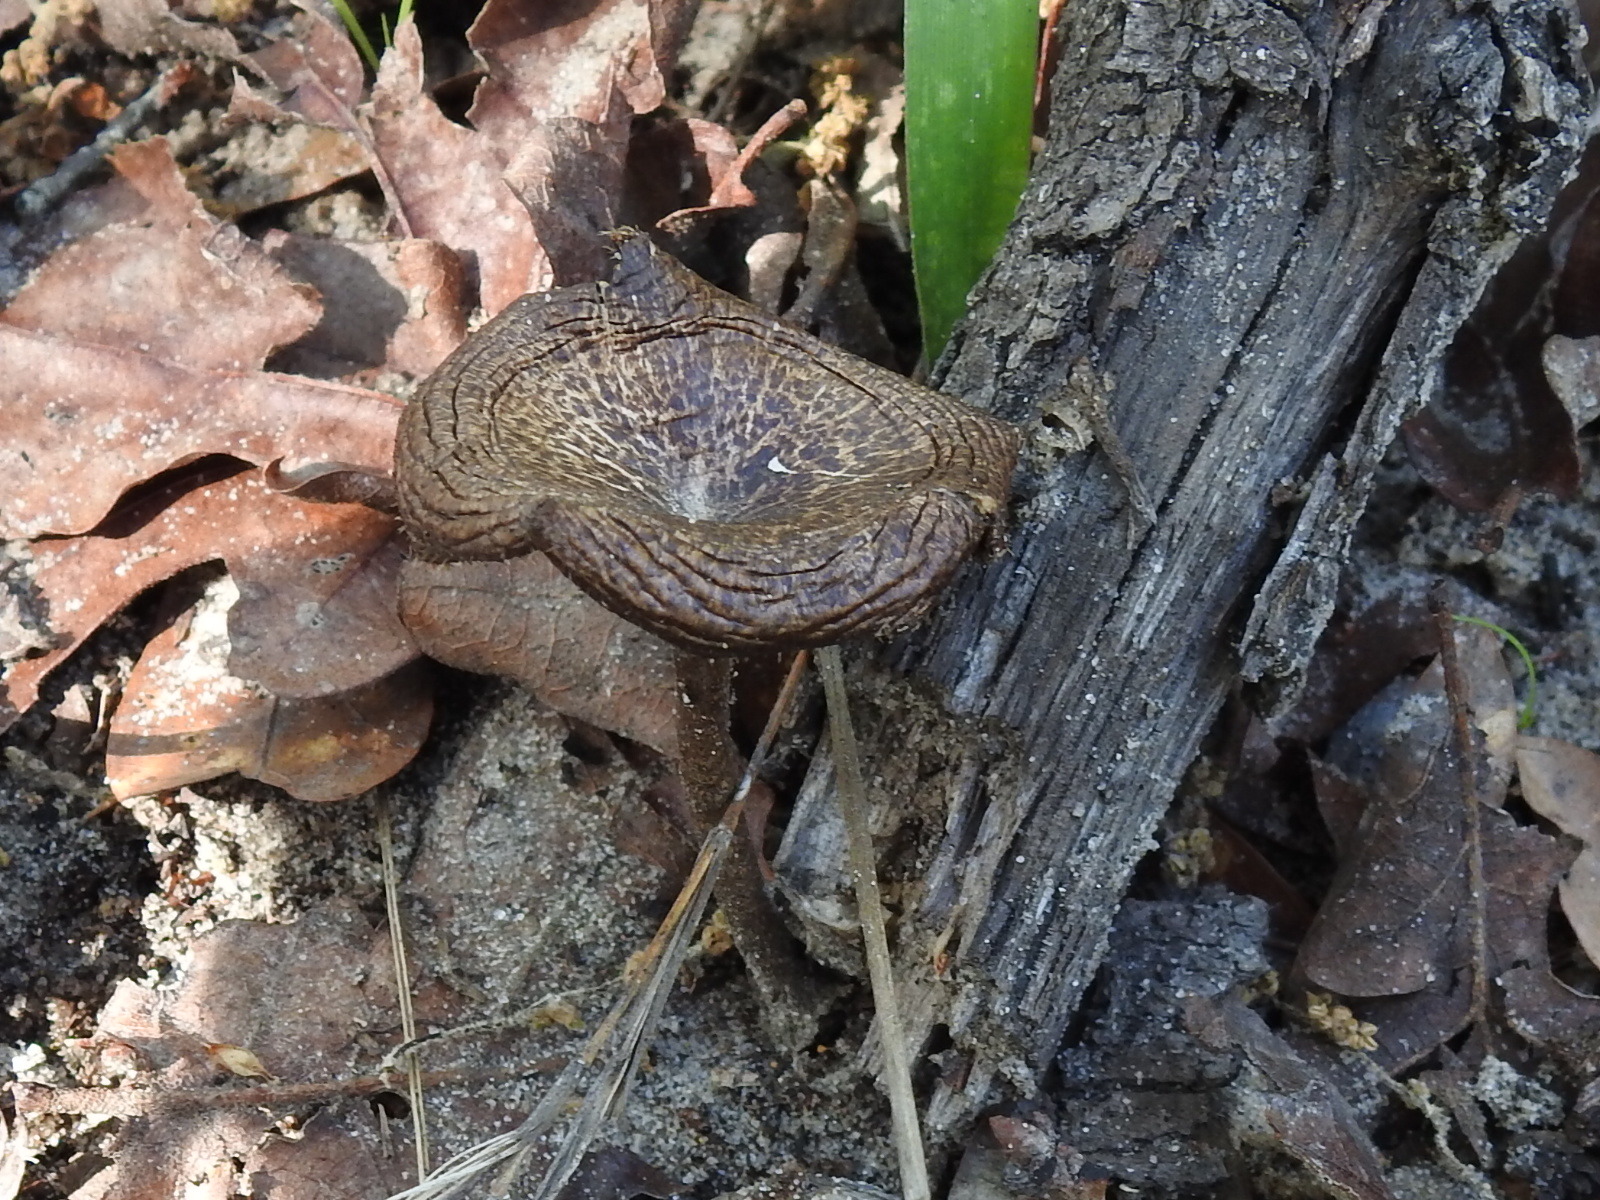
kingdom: Fungi
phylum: Basidiomycota
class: Agaricomycetes
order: Polyporales
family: Polyporaceae
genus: Lentinus
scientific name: Lentinus arcularius
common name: Spring polypore
